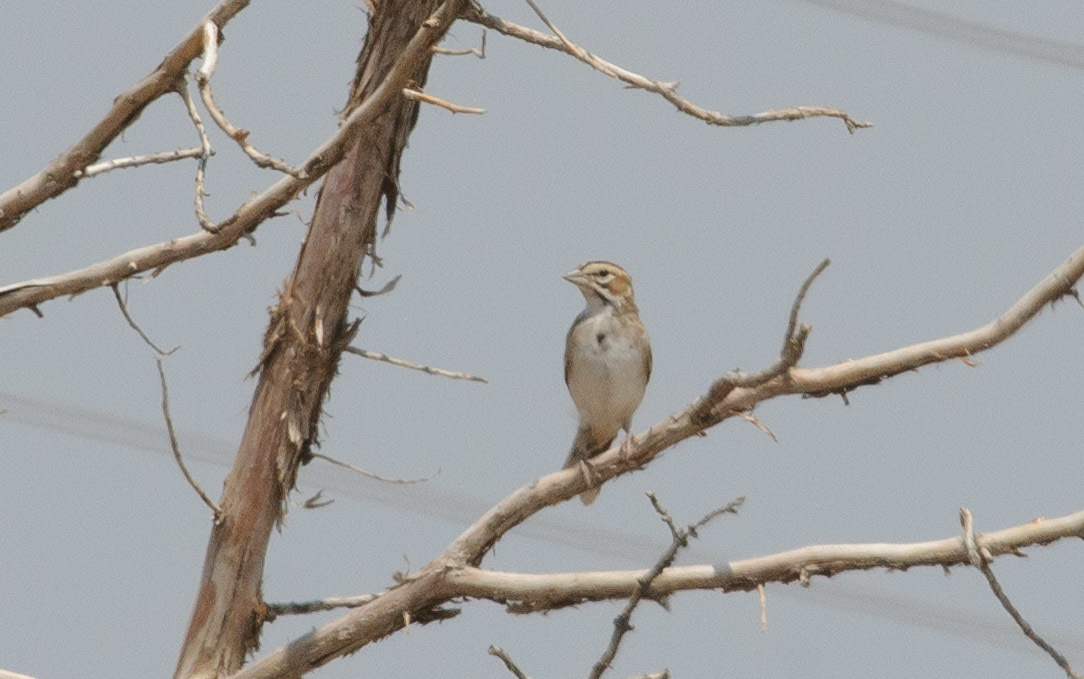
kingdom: Animalia
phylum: Chordata
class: Aves
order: Passeriformes
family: Passerellidae
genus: Chondestes
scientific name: Chondestes grammacus
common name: Lark sparrow
